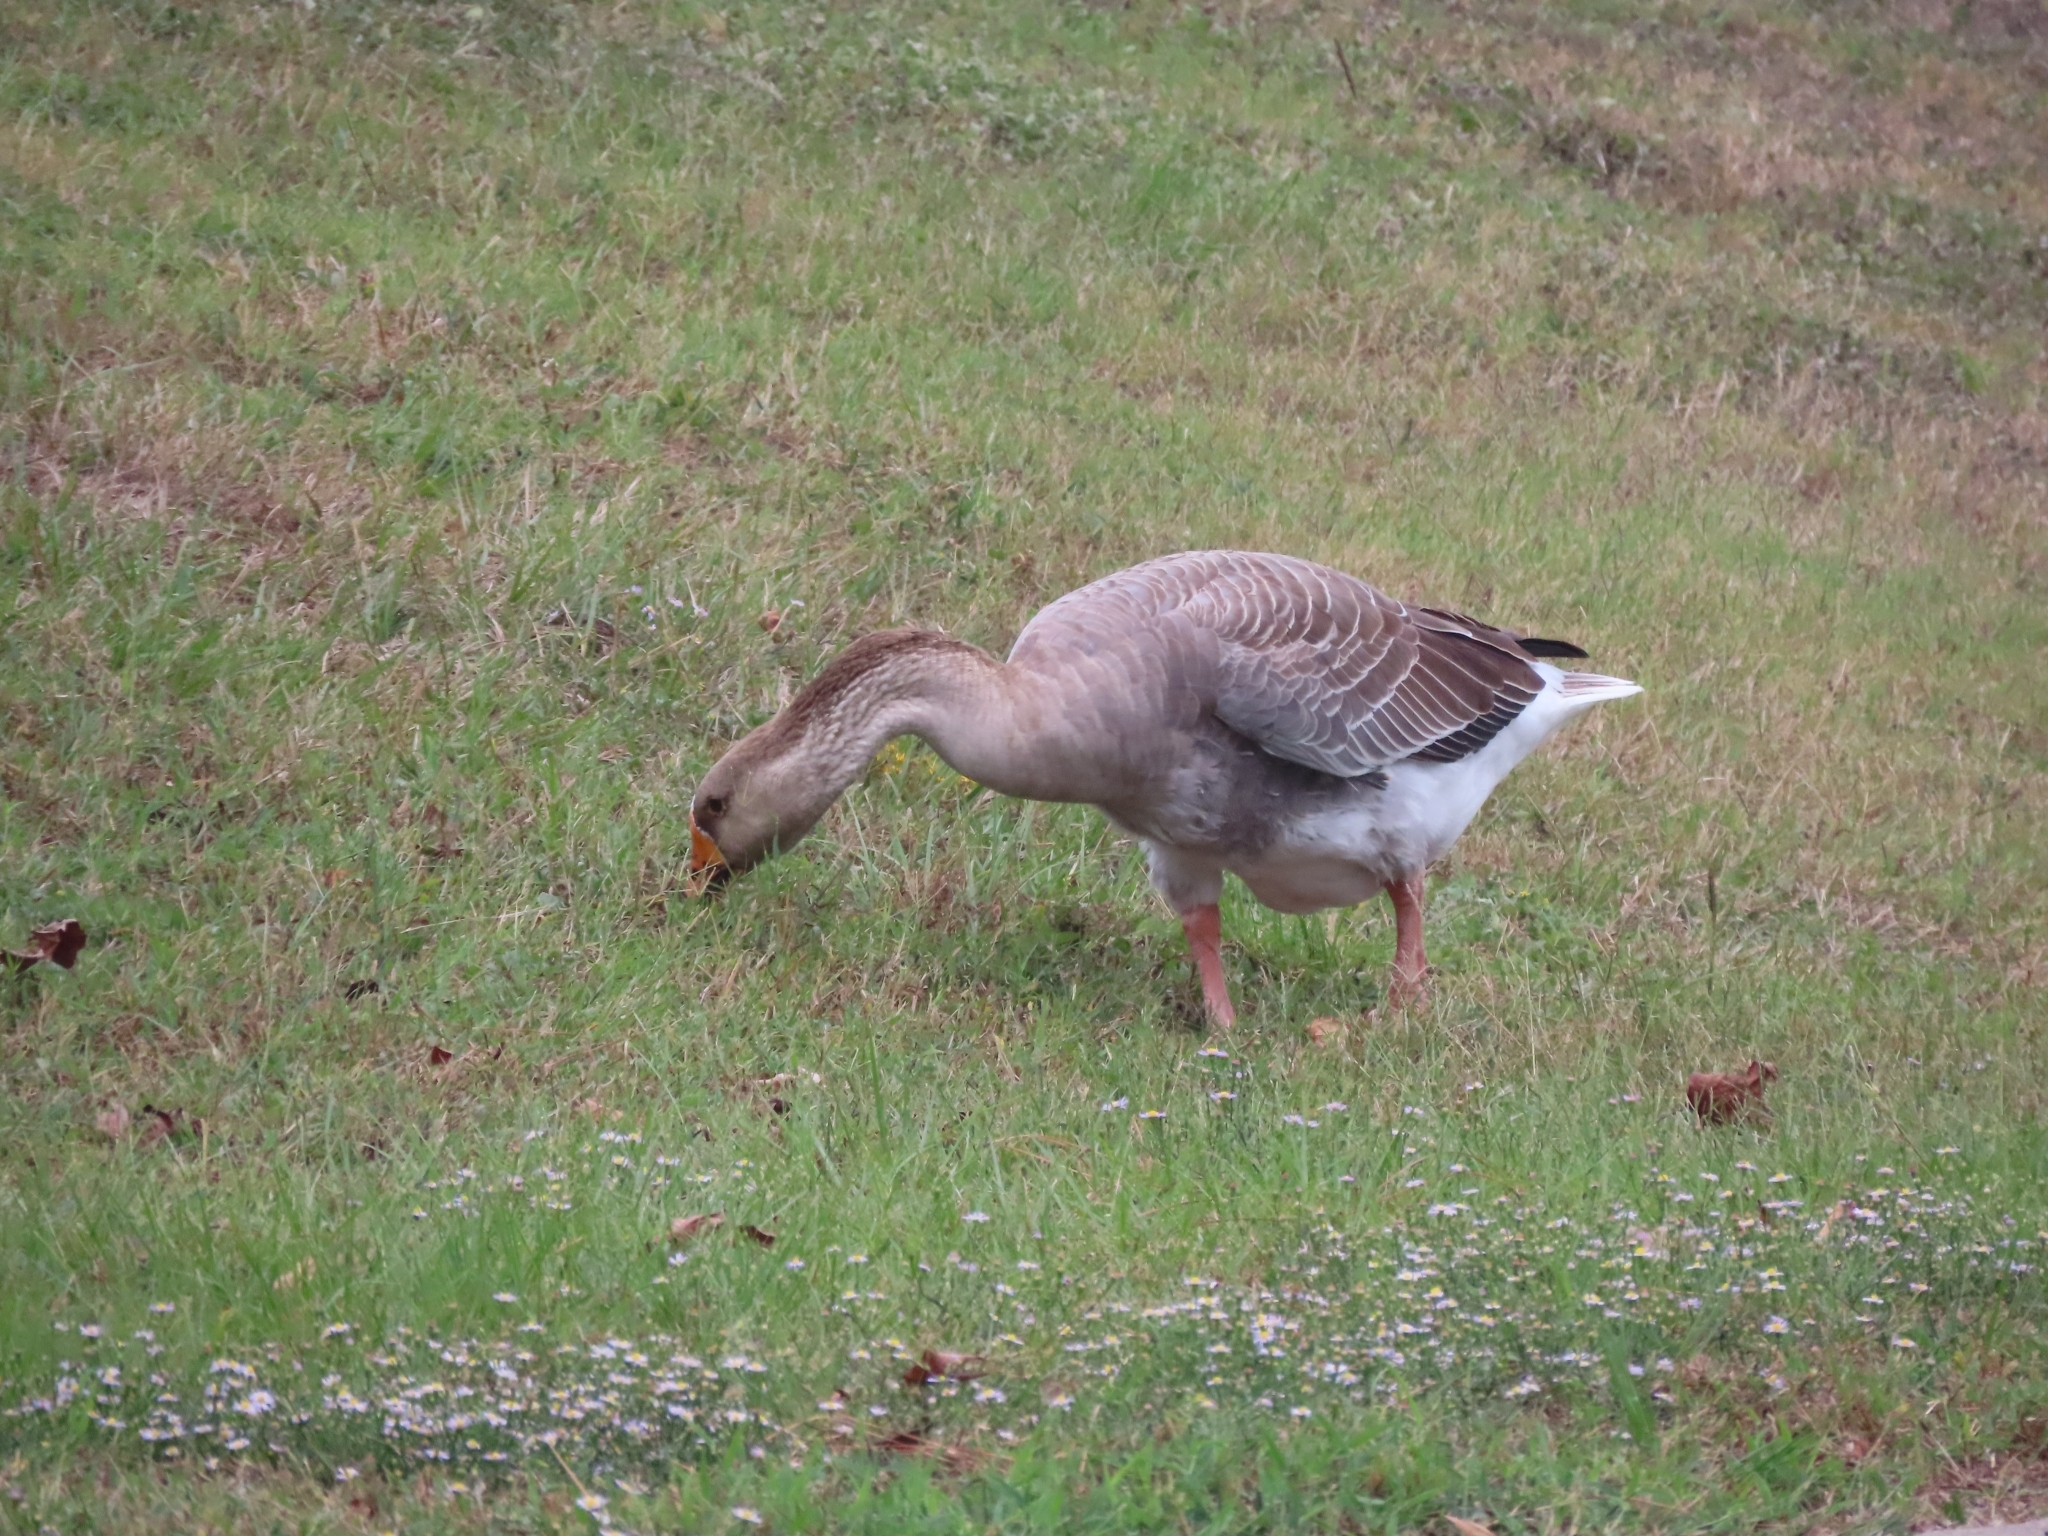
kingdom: Animalia
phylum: Chordata
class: Aves
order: Anseriformes
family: Anatidae
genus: Anser
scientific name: Anser
